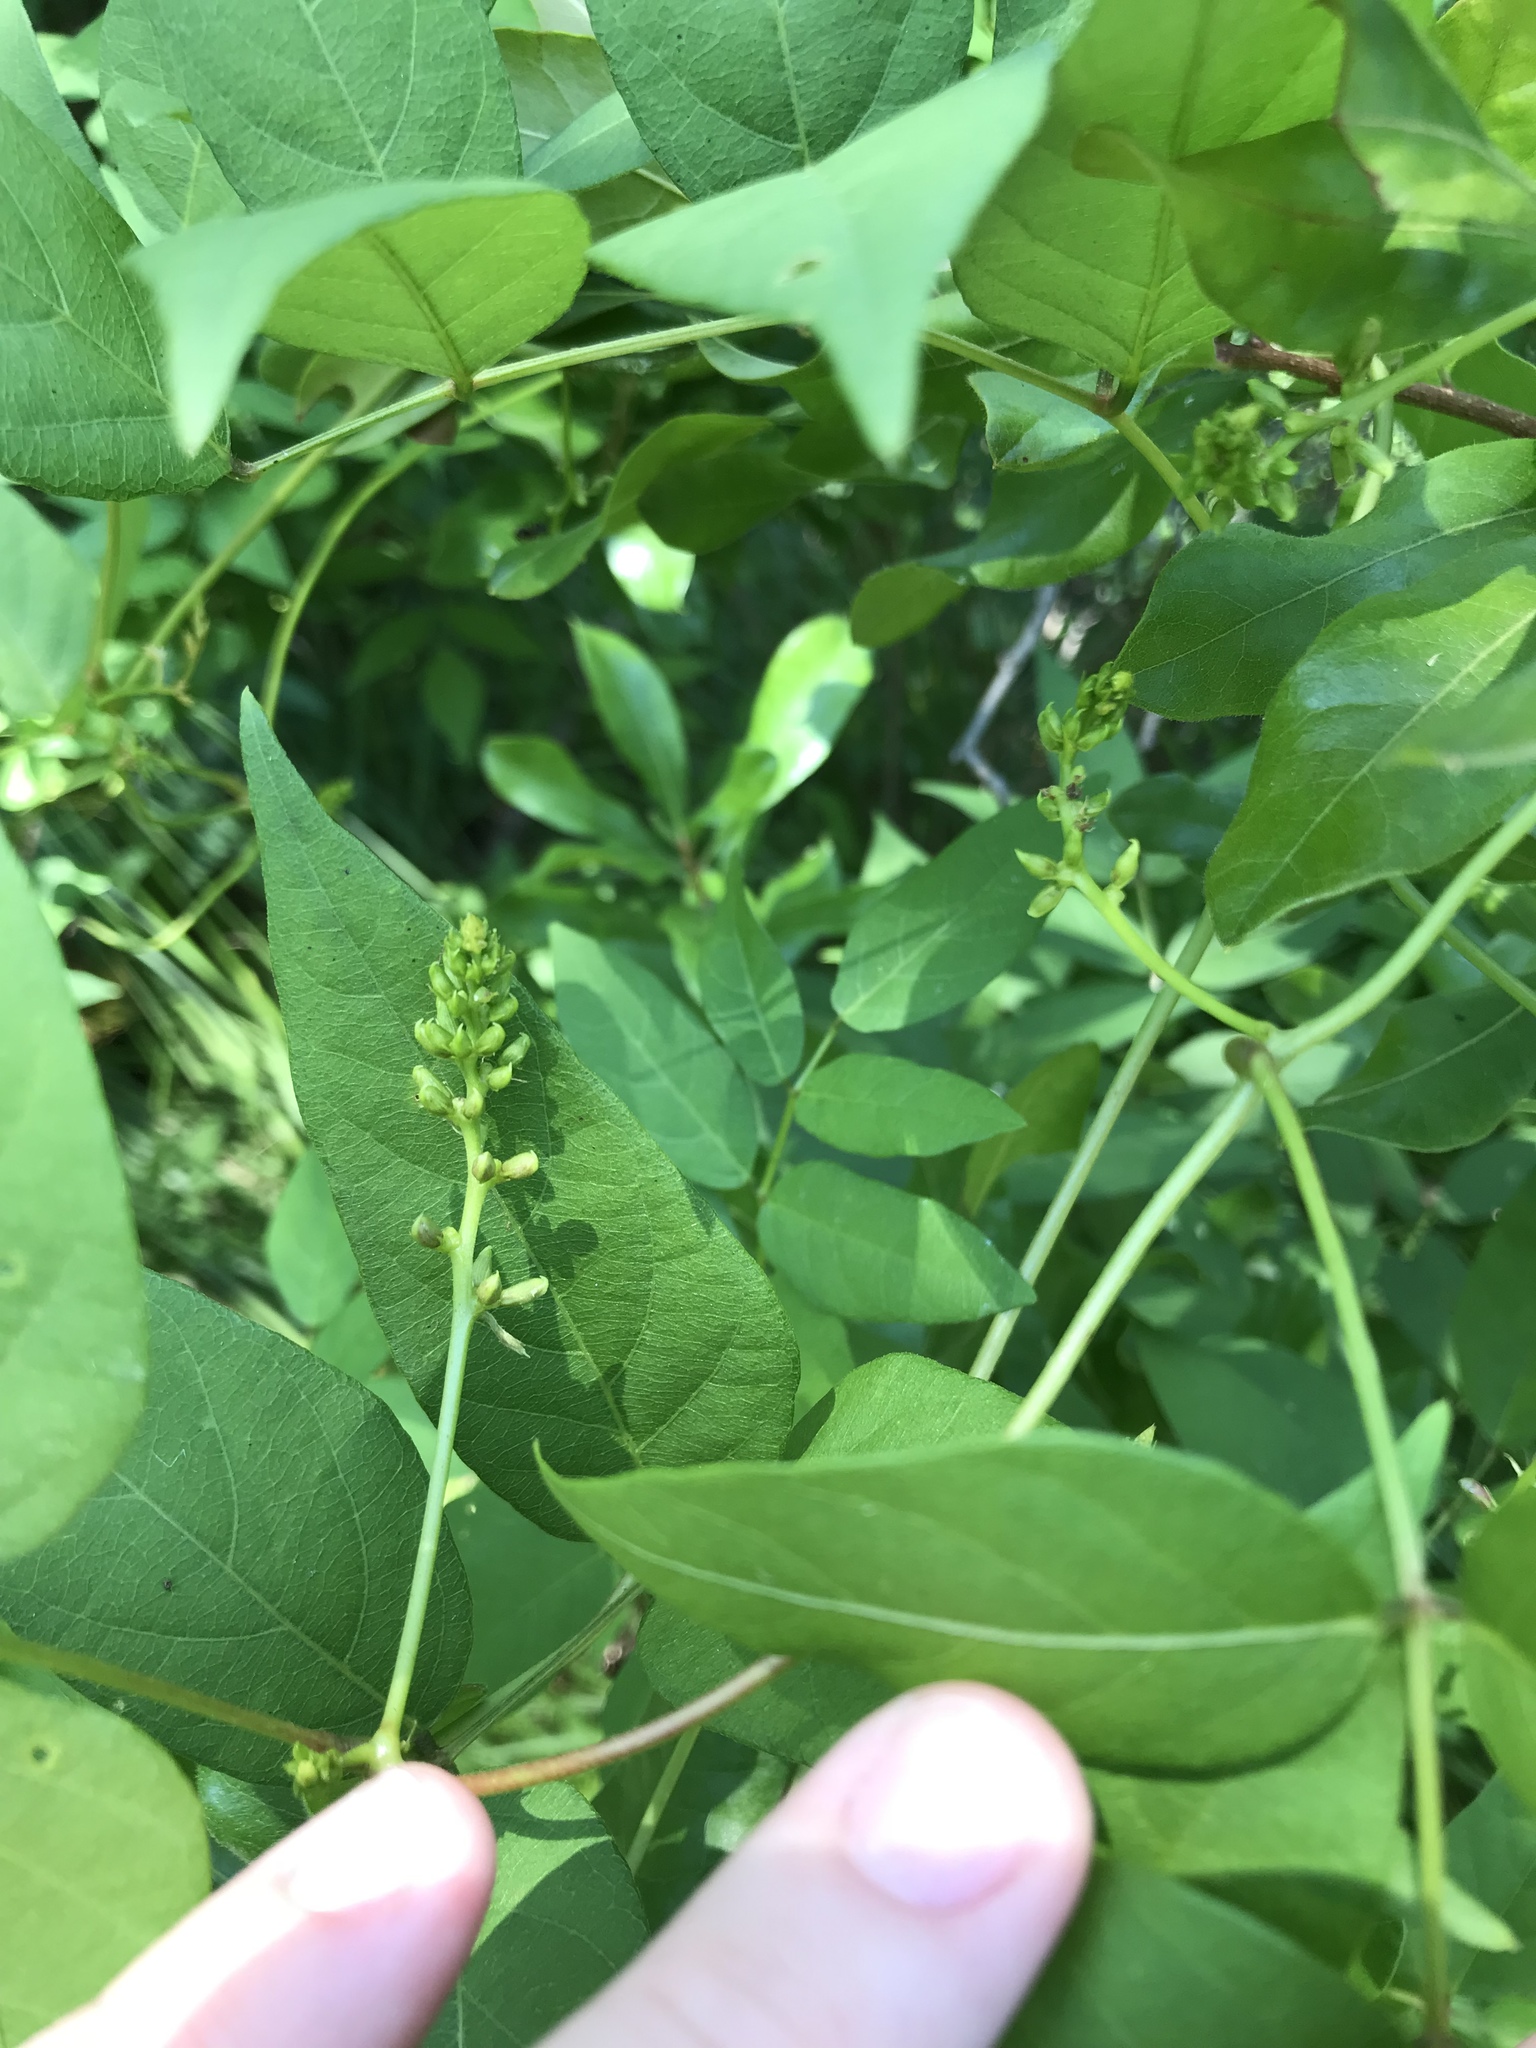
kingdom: Plantae
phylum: Tracheophyta
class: Magnoliopsida
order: Fabales
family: Fabaceae
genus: Apios
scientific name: Apios americana
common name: American potato-bean
